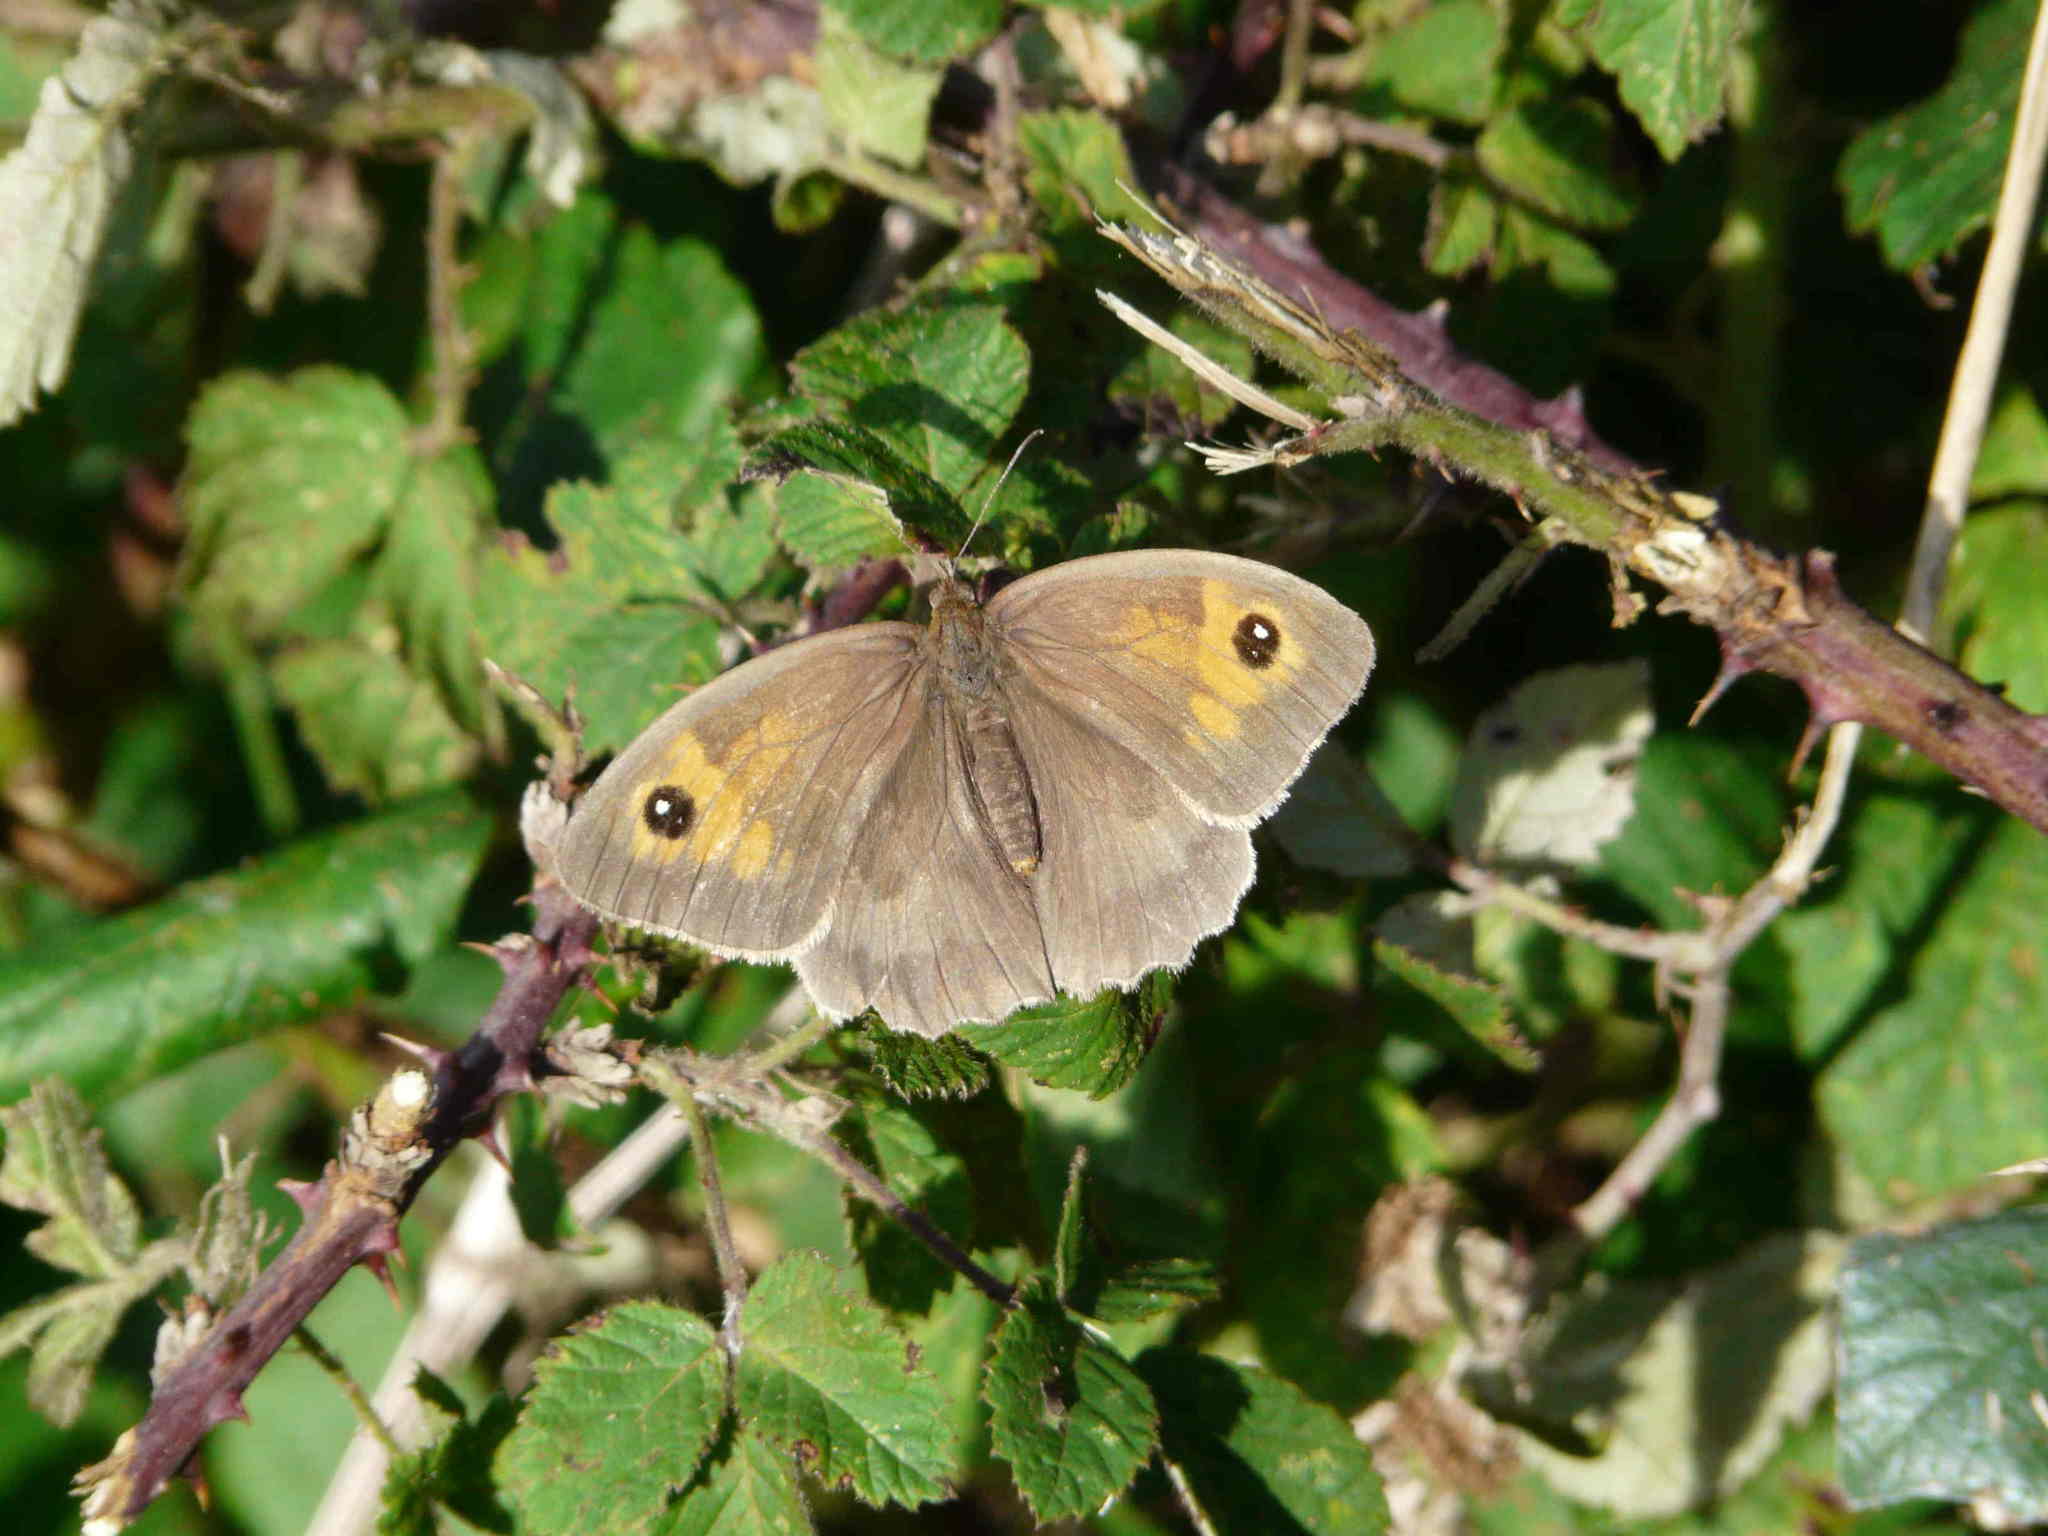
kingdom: Animalia
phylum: Arthropoda
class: Insecta
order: Lepidoptera
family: Nymphalidae
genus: Maniola
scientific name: Maniola jurtina
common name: Meadow brown
